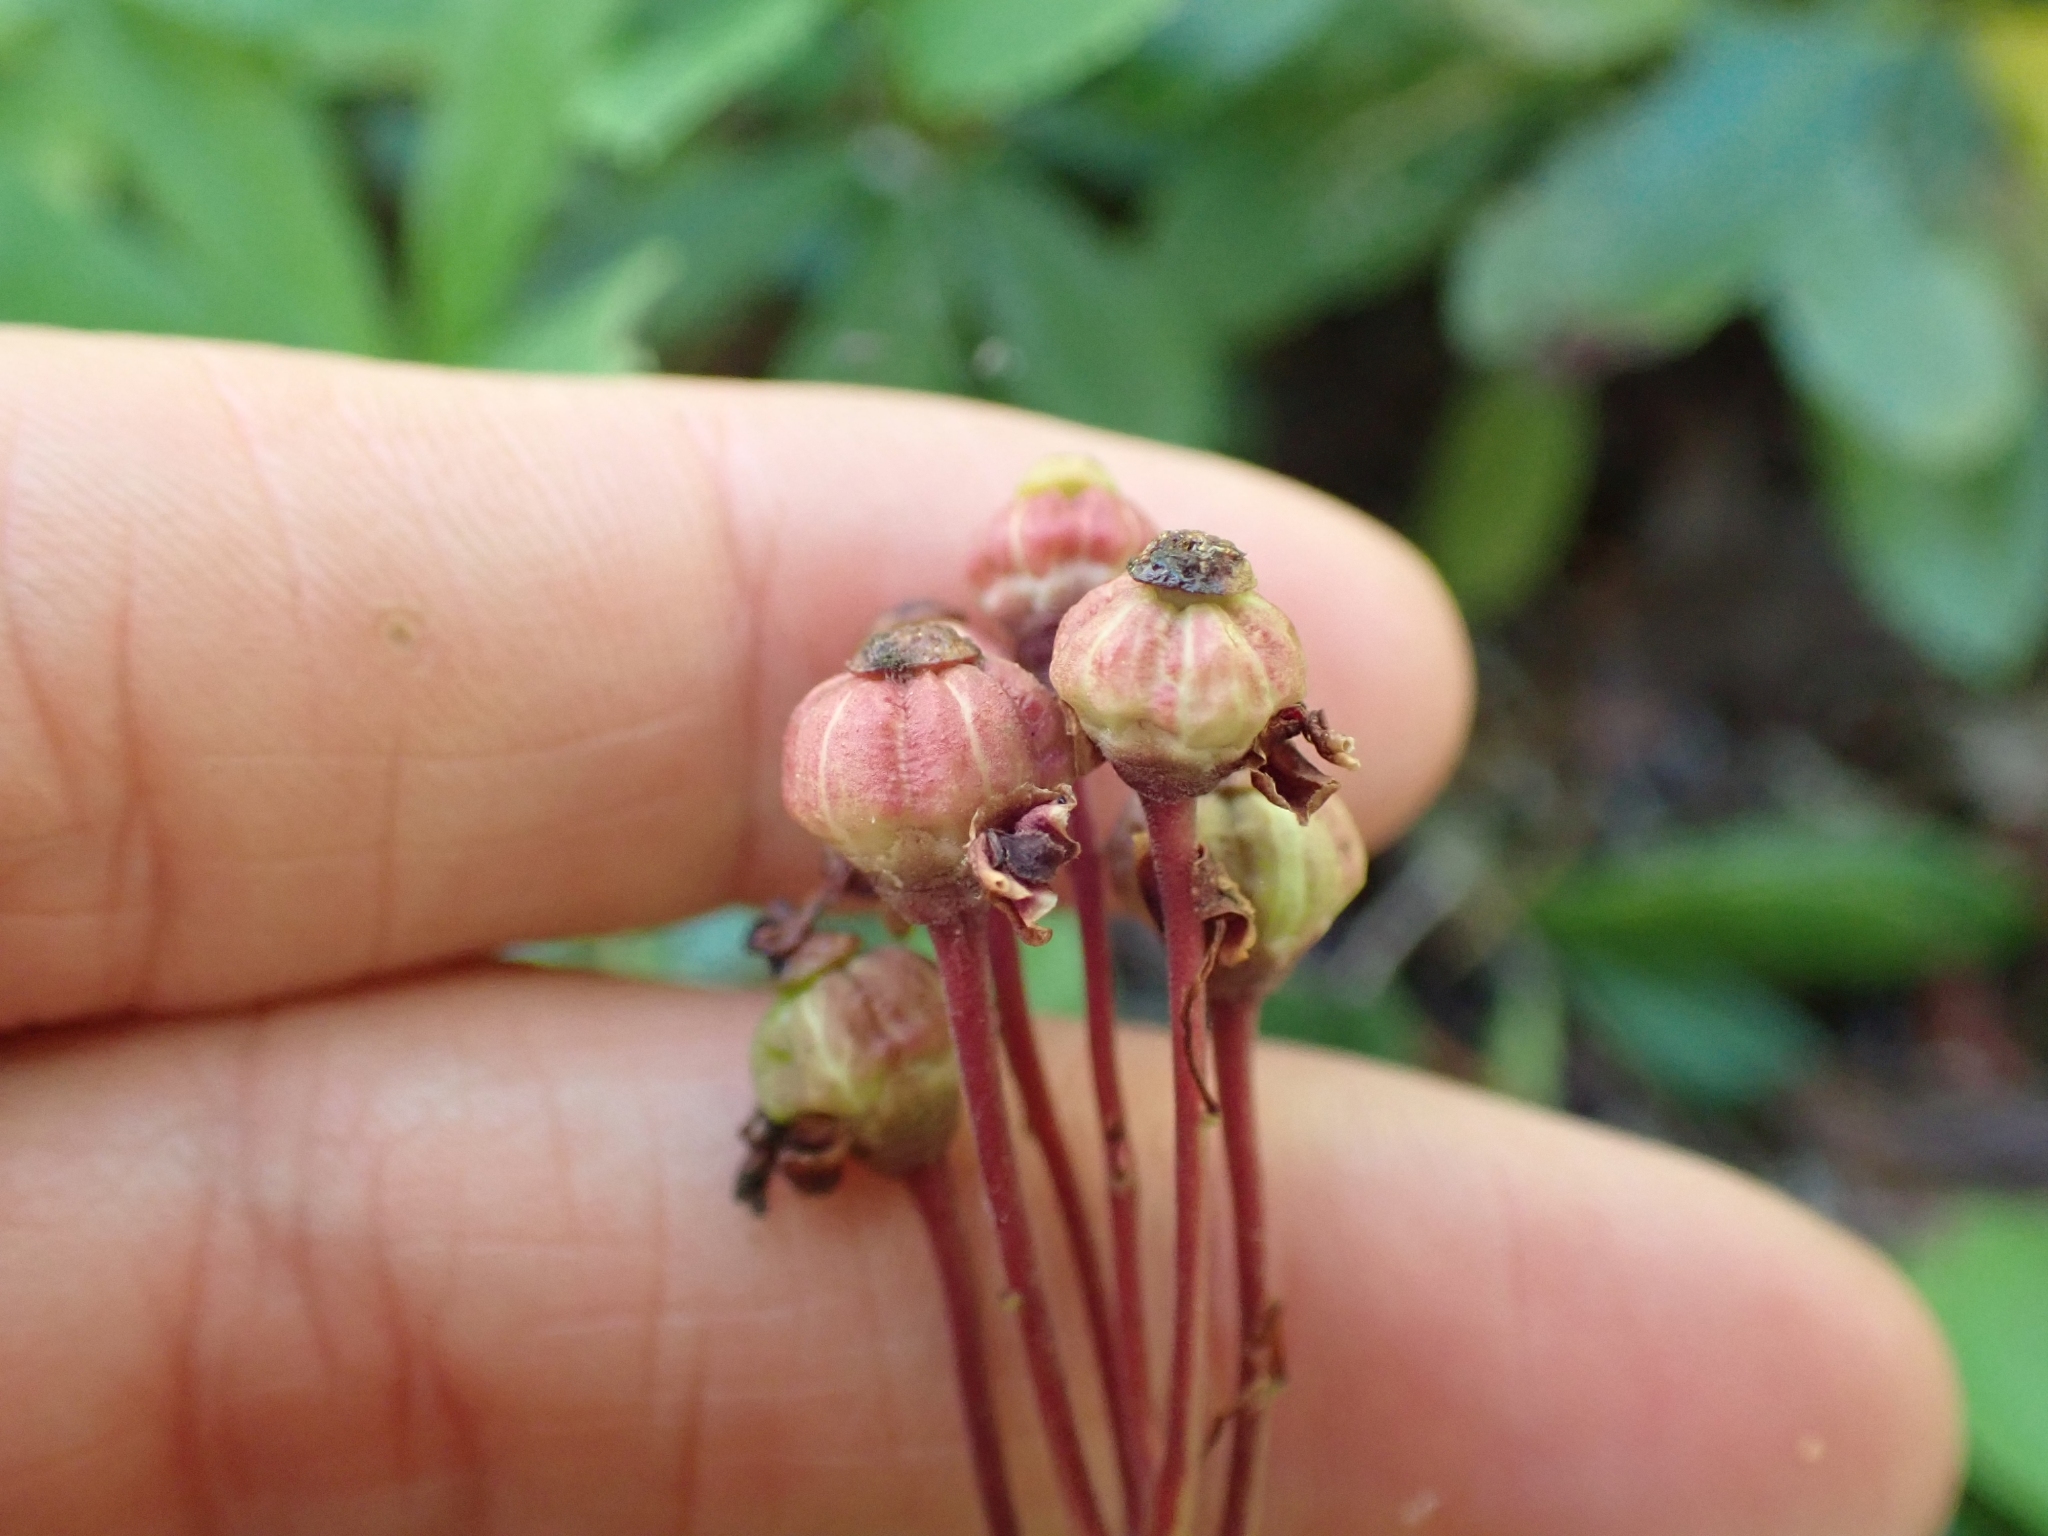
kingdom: Plantae
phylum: Tracheophyta
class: Magnoliopsida
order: Ericales
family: Ericaceae
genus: Chimaphila
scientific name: Chimaphila umbellata
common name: Pipsissewa
